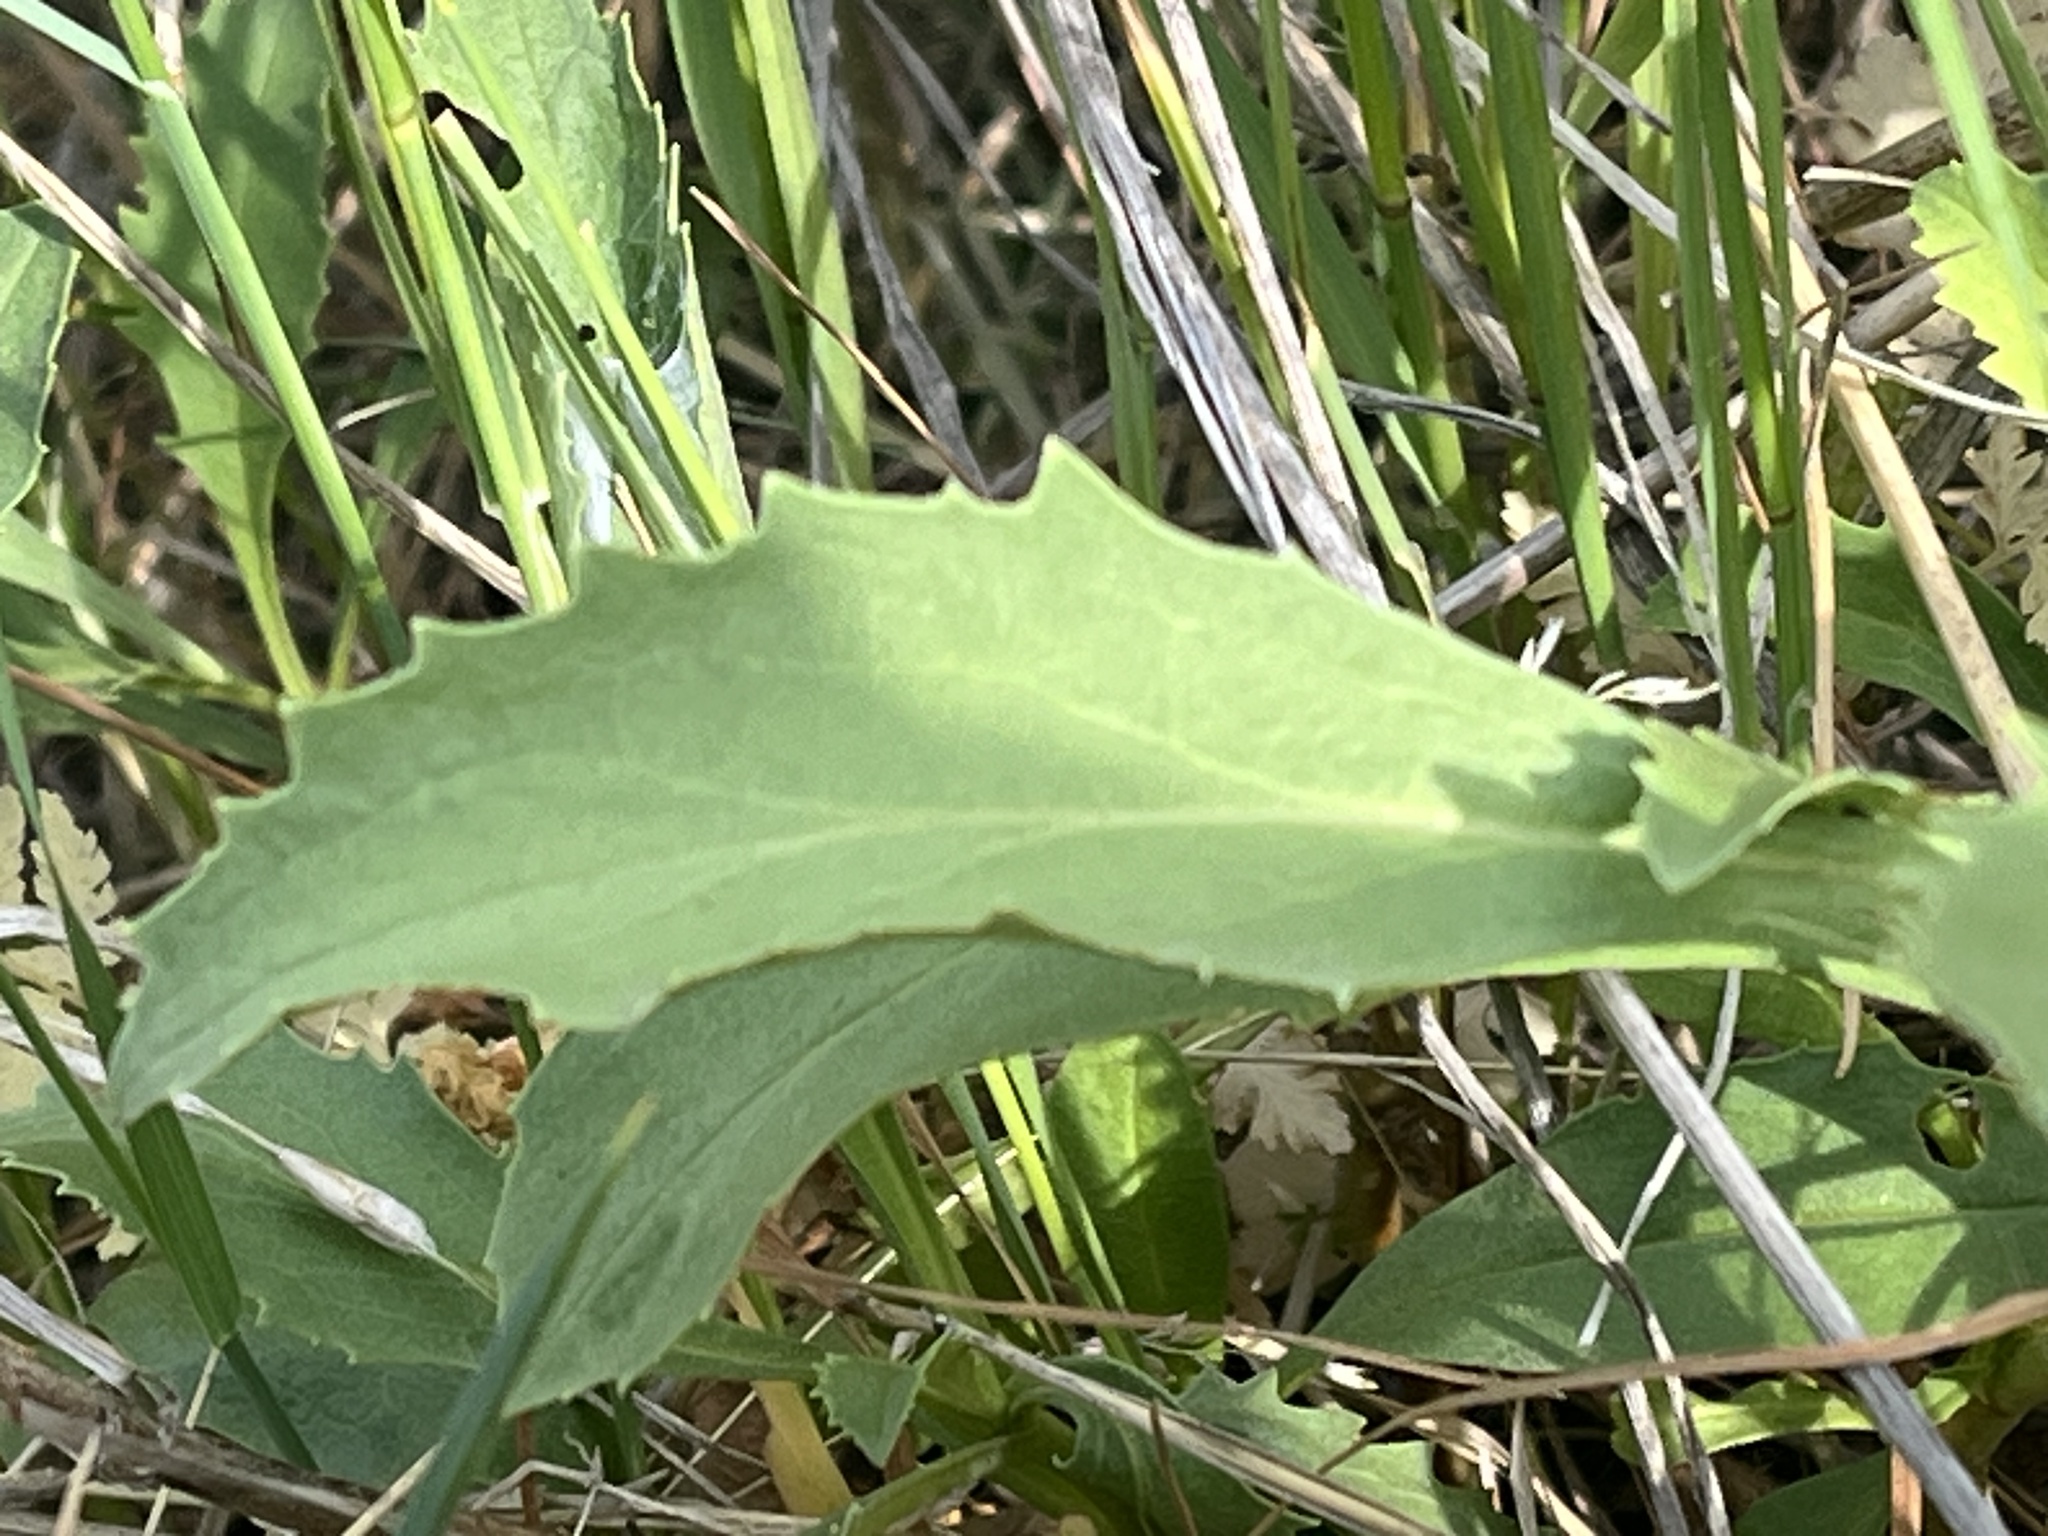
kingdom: Plantae
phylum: Tracheophyta
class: Magnoliopsida
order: Lamiales
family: Plantaginaceae
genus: Penstemon
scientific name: Penstemon deustus
